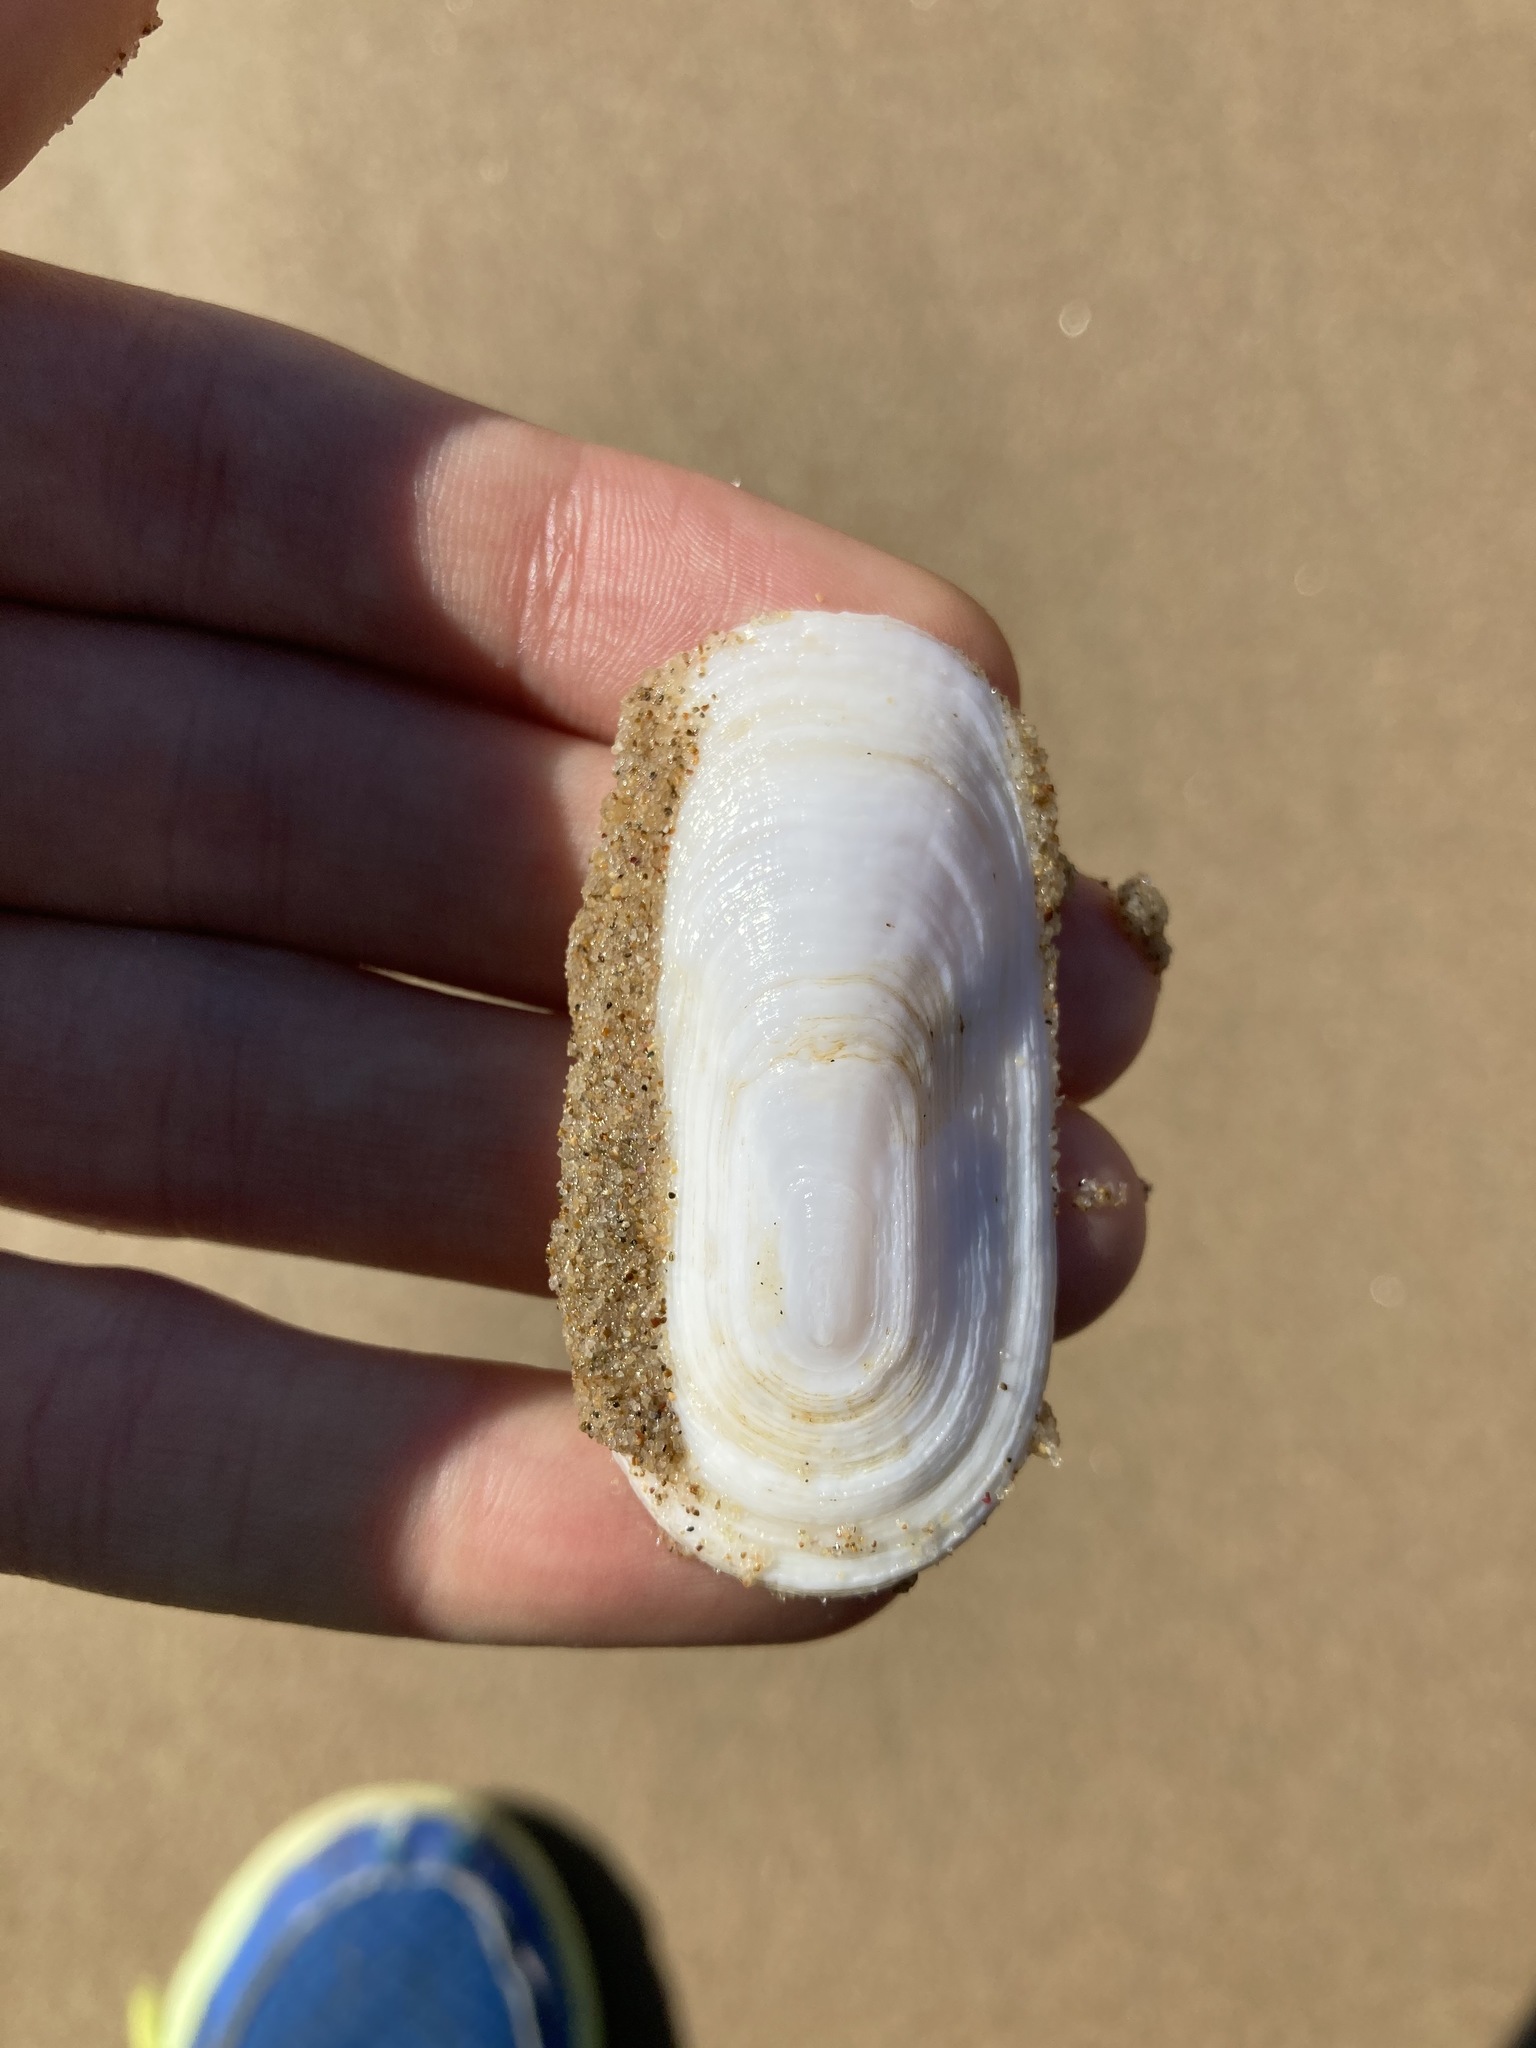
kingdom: Animalia
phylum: Mollusca
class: Gastropoda
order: Lepetellida
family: Fissurellidae
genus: Scutus
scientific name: Scutus antipodes
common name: Duckbill shell
